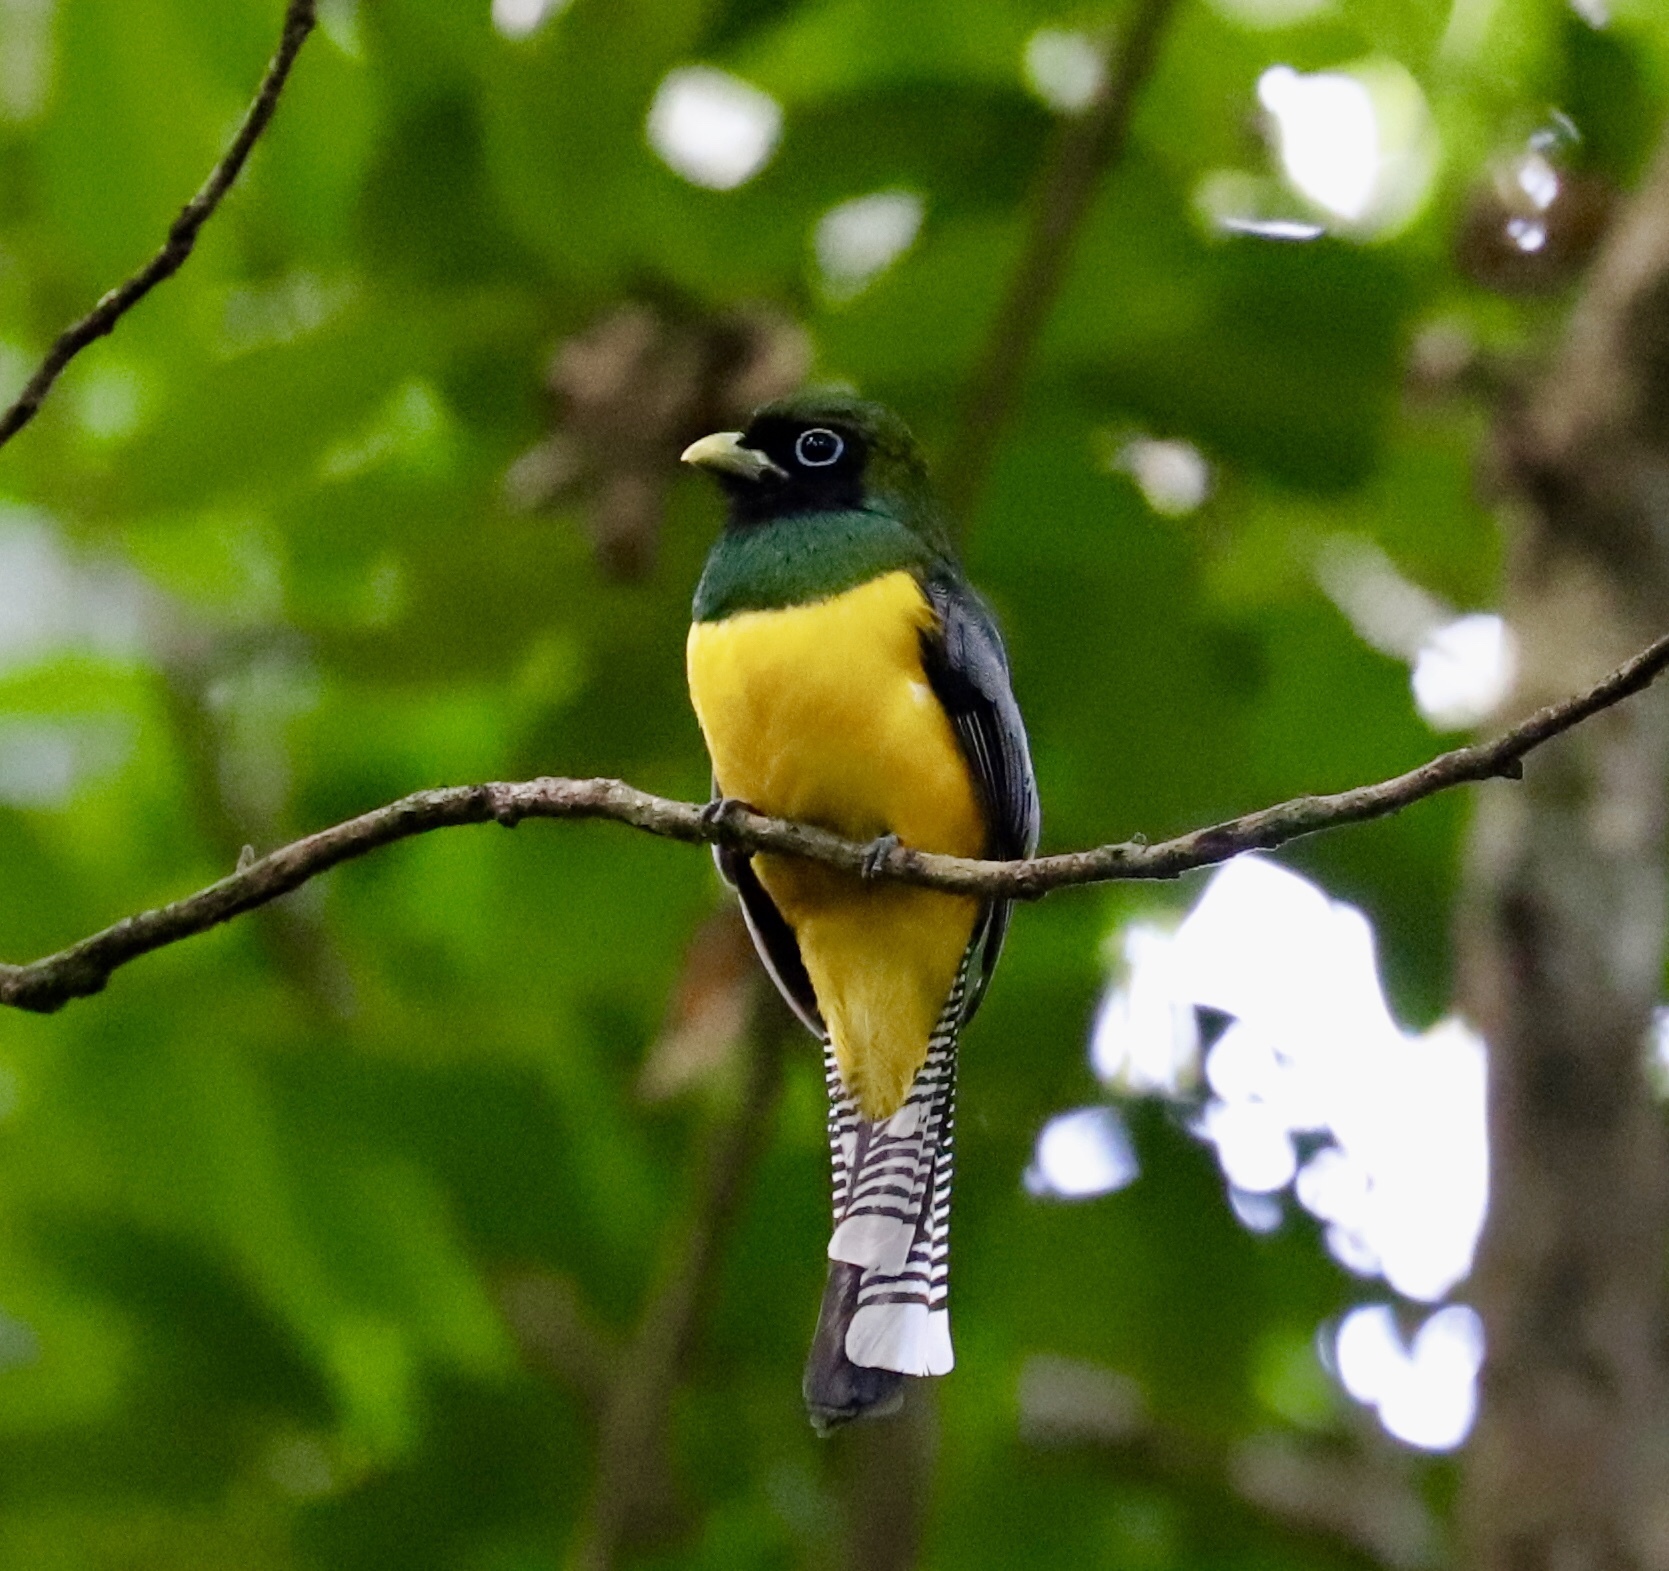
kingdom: Animalia
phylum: Chordata
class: Aves
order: Trogoniformes
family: Trogonidae
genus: Trogon
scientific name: Trogon rufus
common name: Black-throated trogon
